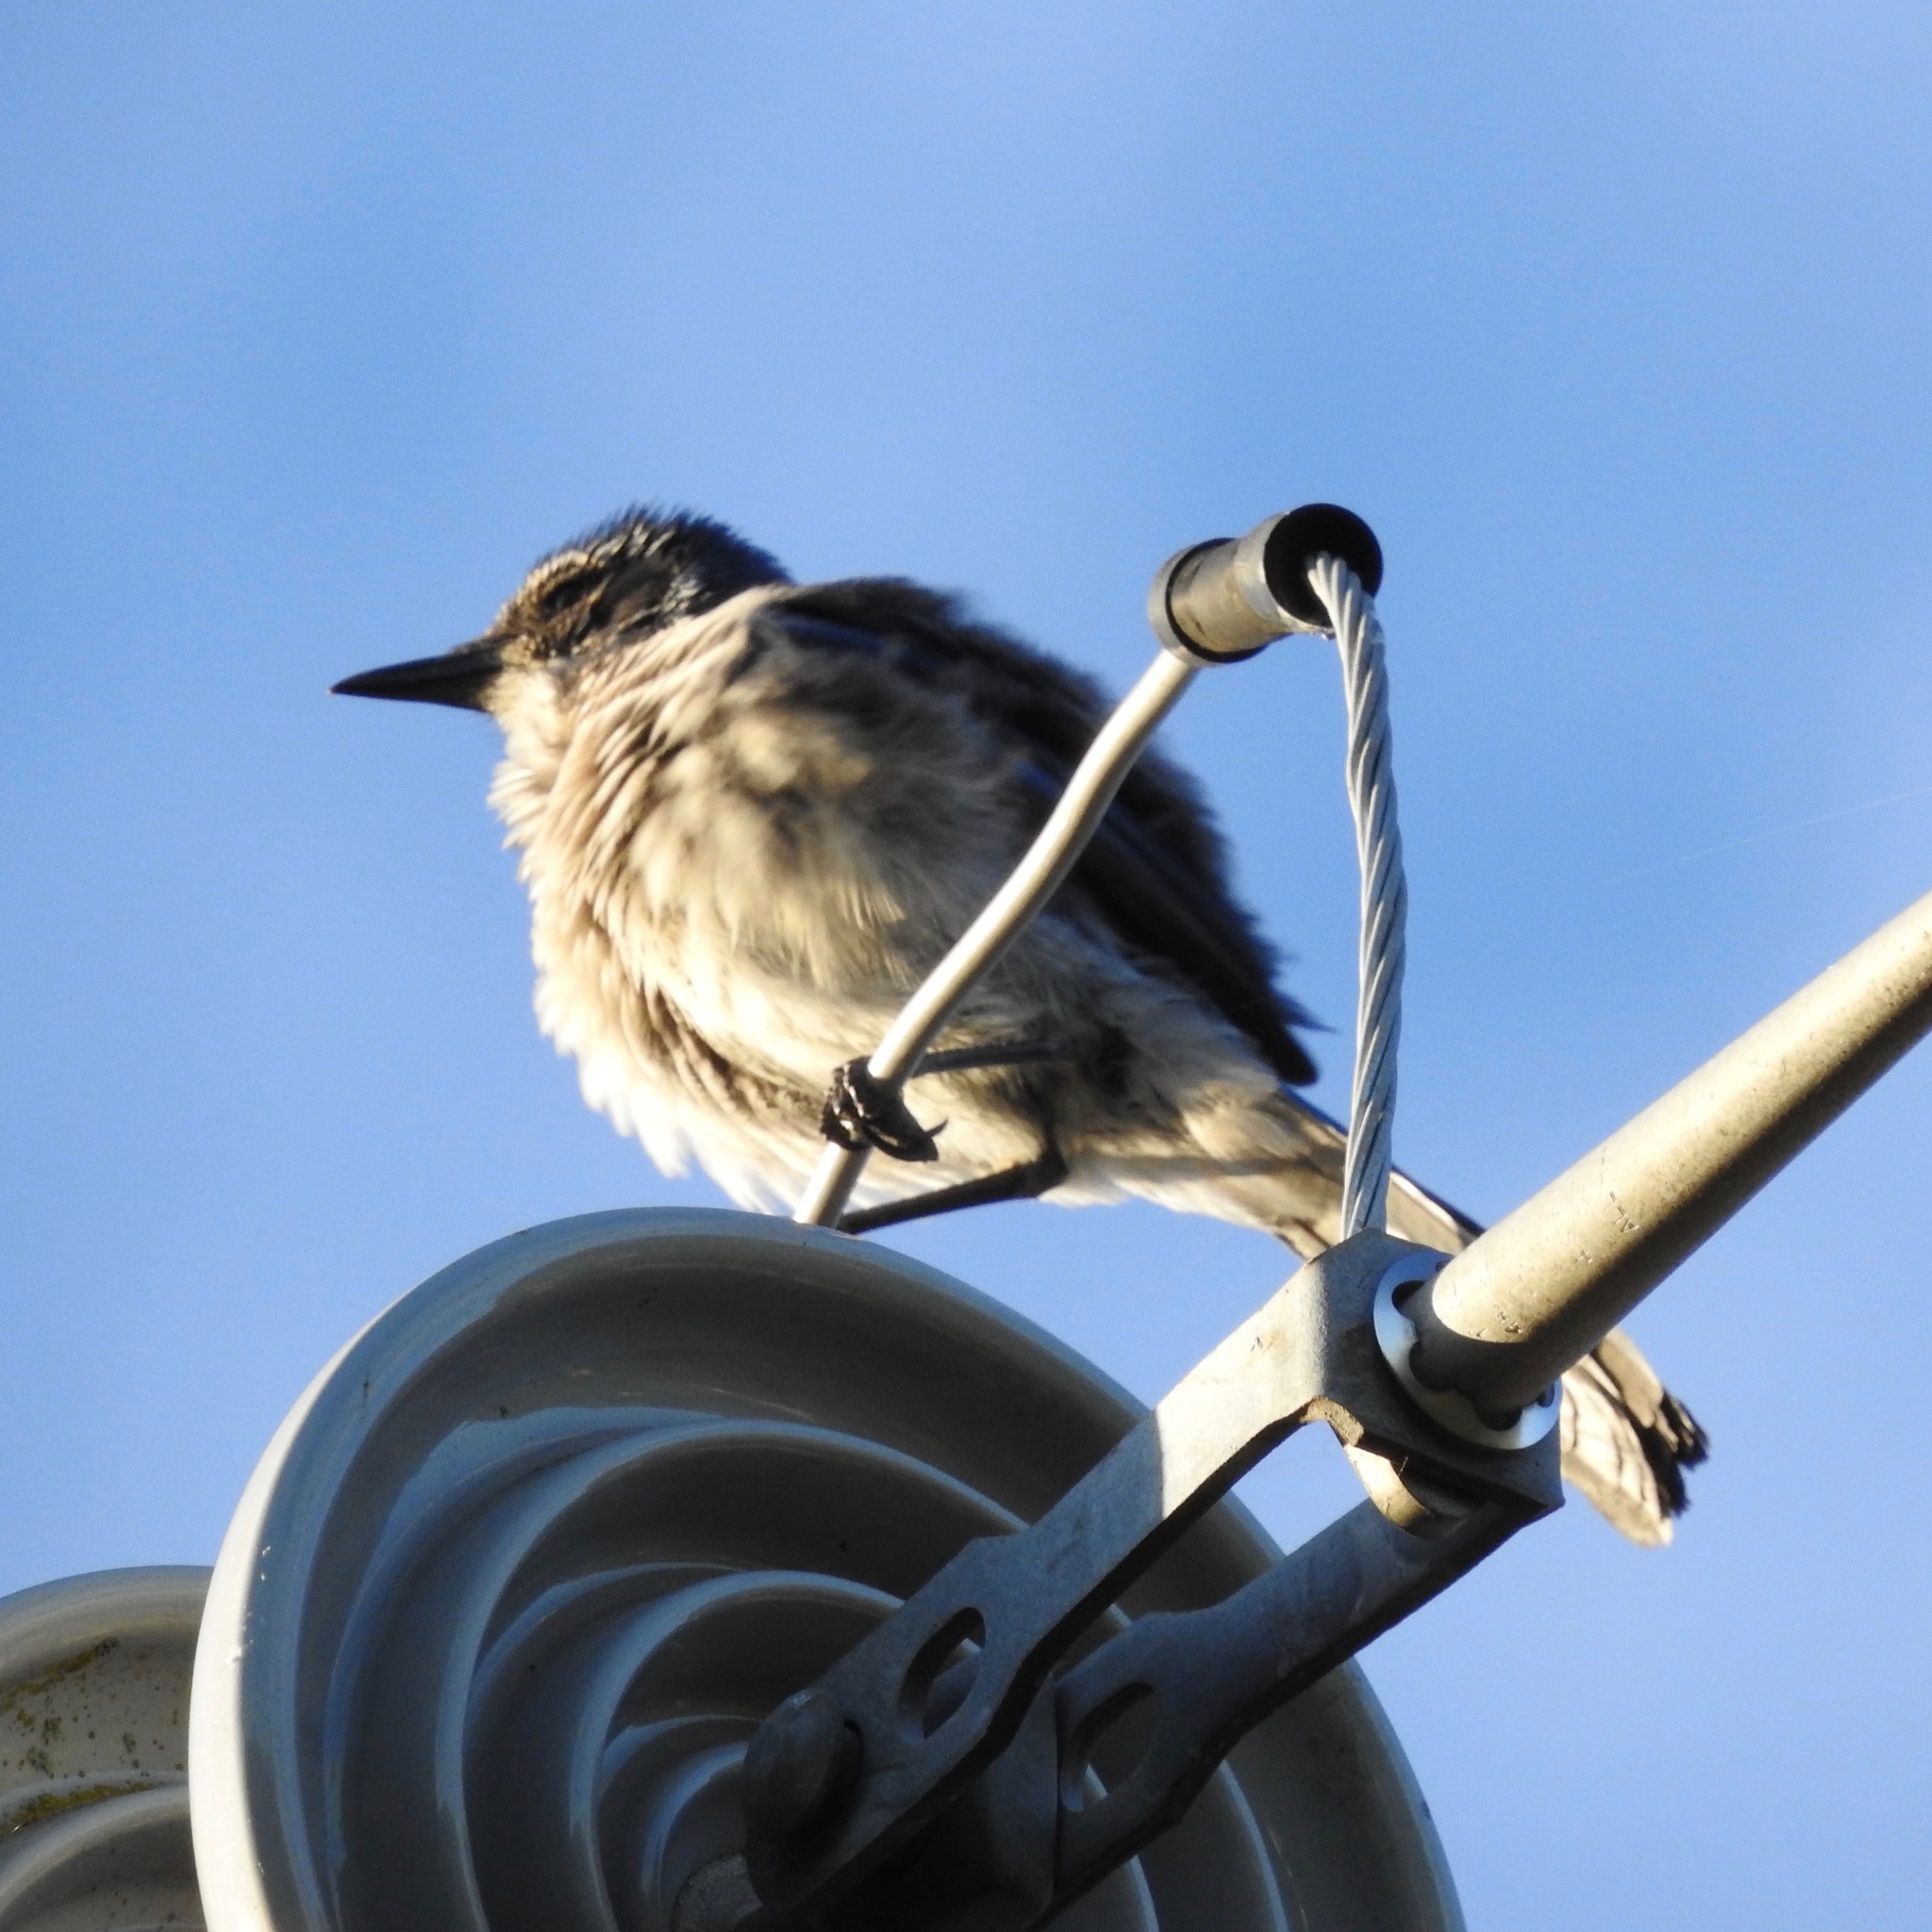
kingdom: Animalia
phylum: Chordata
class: Aves
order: Passeriformes
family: Corvidae
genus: Aphelocoma
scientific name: Aphelocoma californica
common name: California scrub-jay
